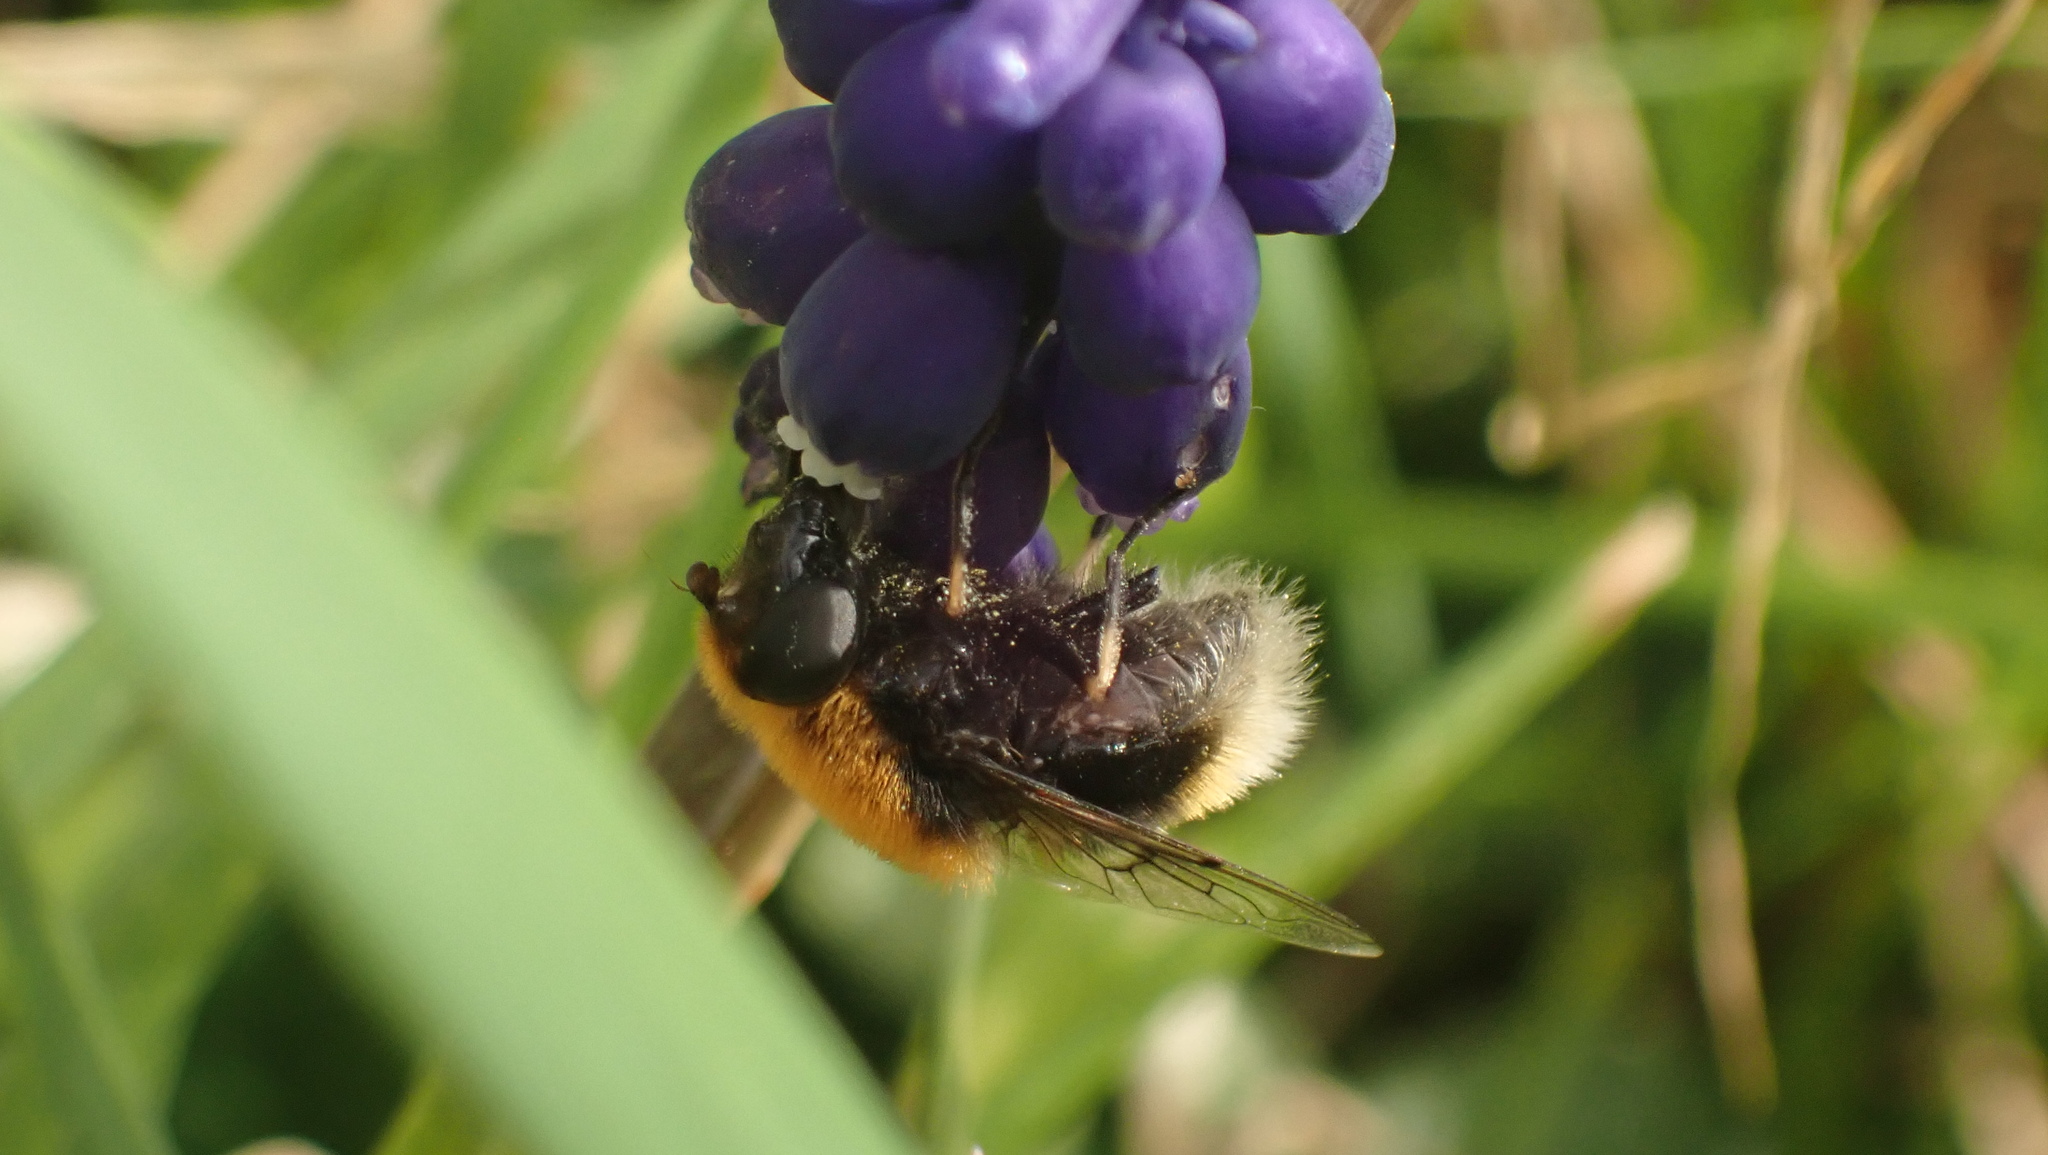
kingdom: Animalia
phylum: Arthropoda
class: Insecta
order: Diptera
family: Syrphidae
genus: Eristalis
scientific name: Eristalis intricaria
